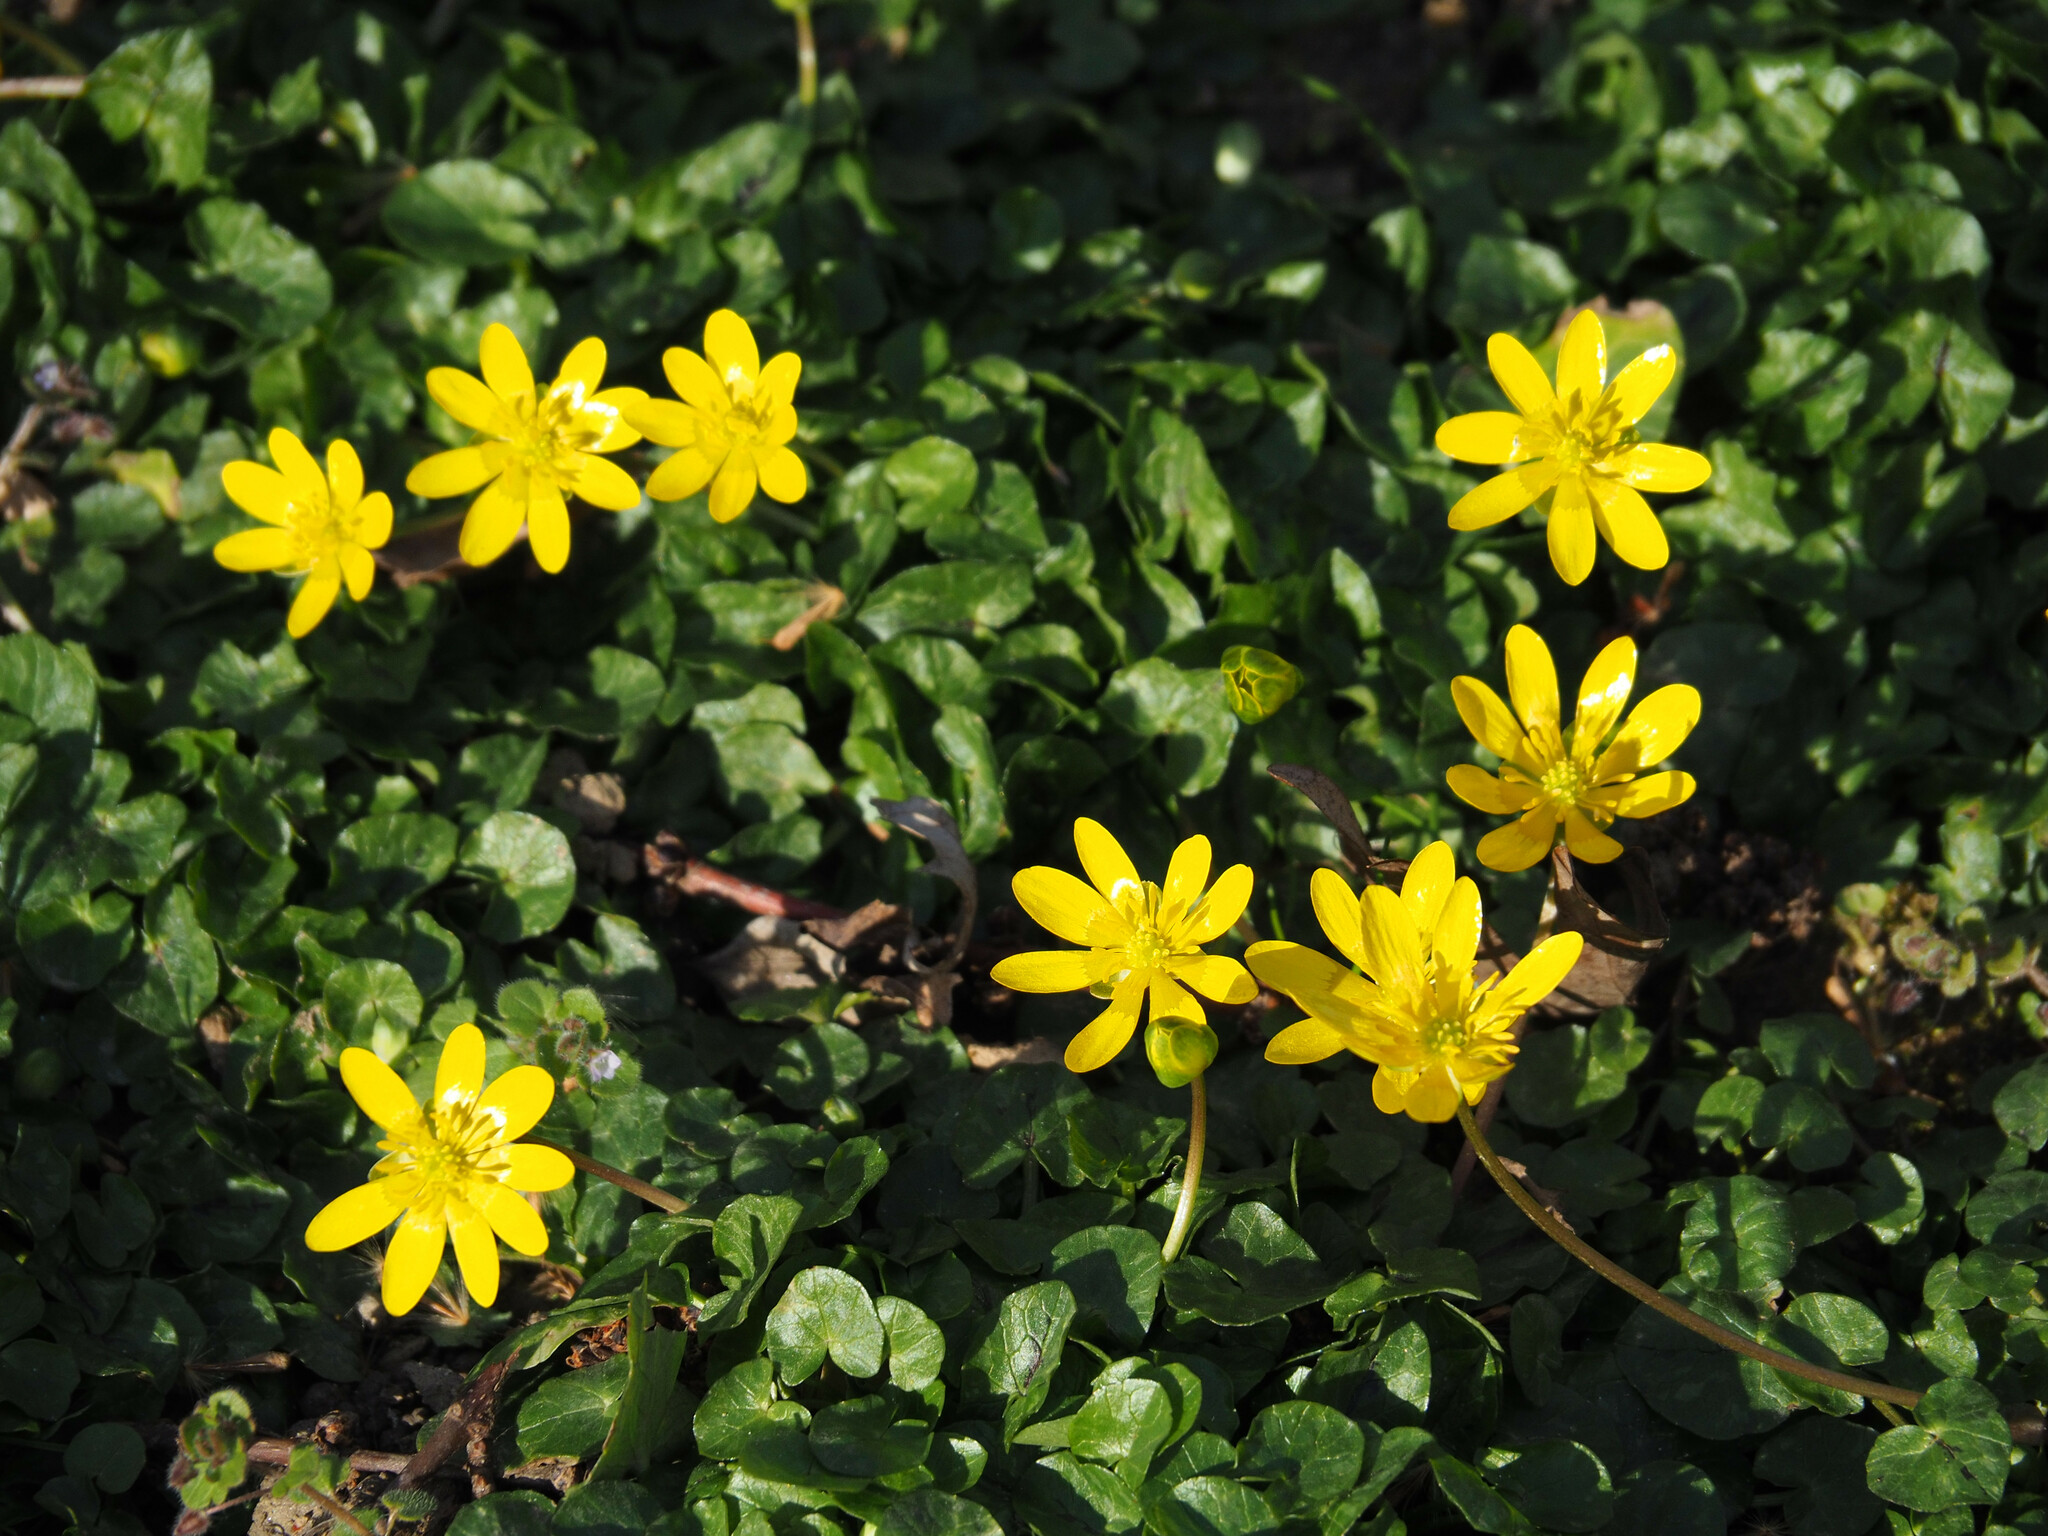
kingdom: Plantae
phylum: Tracheophyta
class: Magnoliopsida
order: Ranunculales
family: Ranunculaceae
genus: Ficaria
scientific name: Ficaria verna
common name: Lesser celandine
